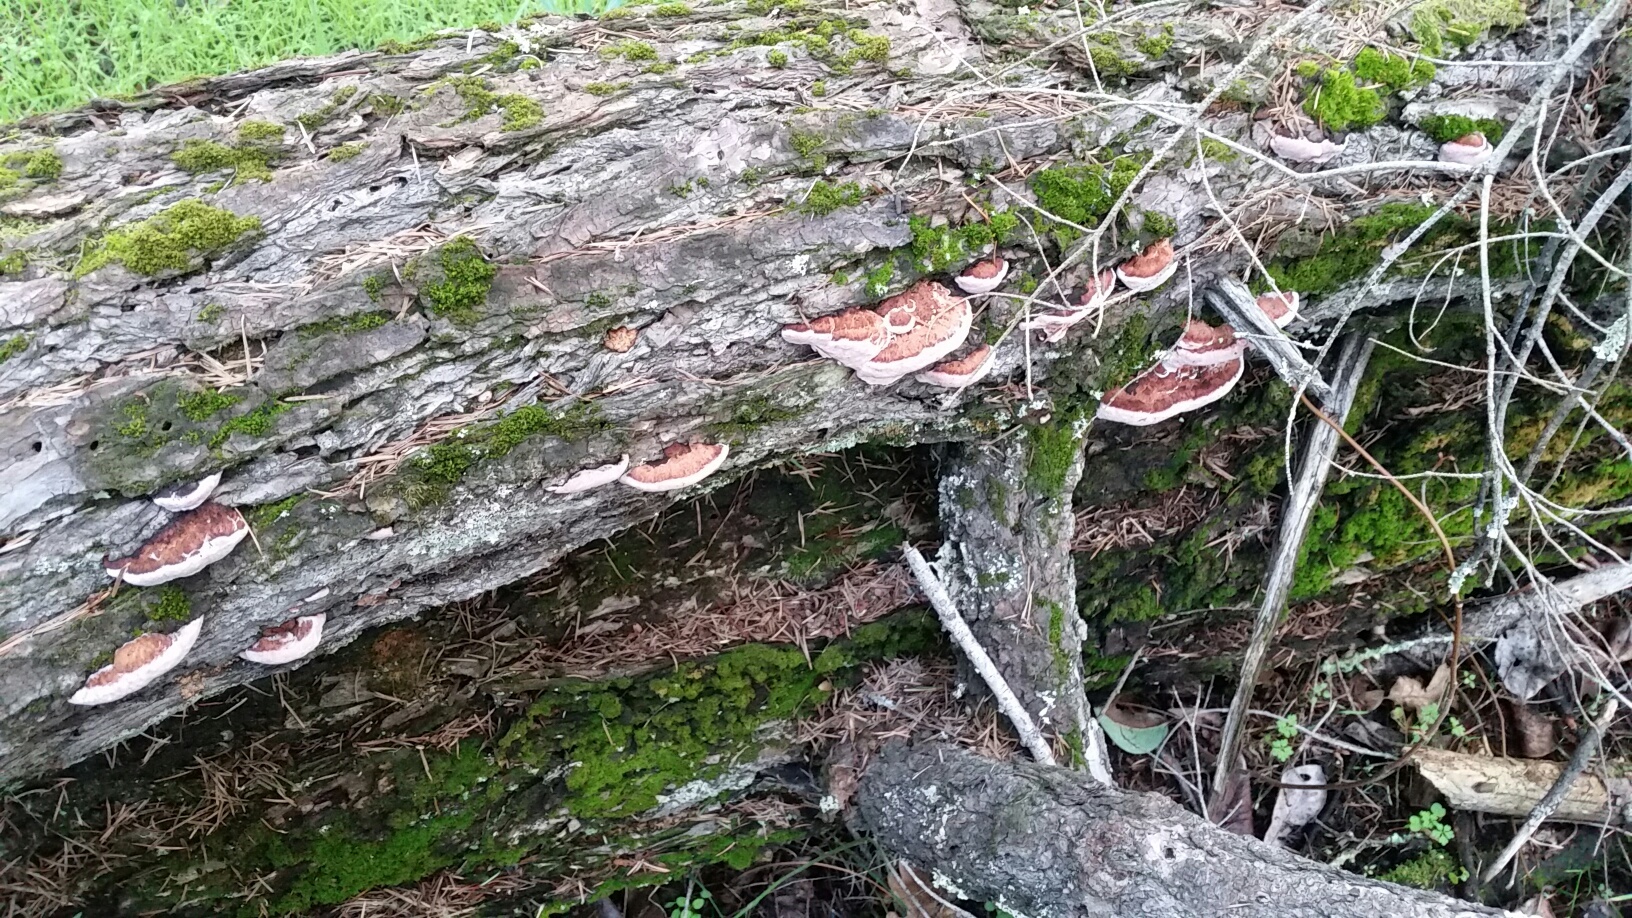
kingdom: Fungi
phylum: Basidiomycota
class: Agaricomycetes
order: Polyporales
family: Fomitopsidaceae
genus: Rhodofomes
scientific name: Rhodofomes cajanderi
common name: Rosy conk
